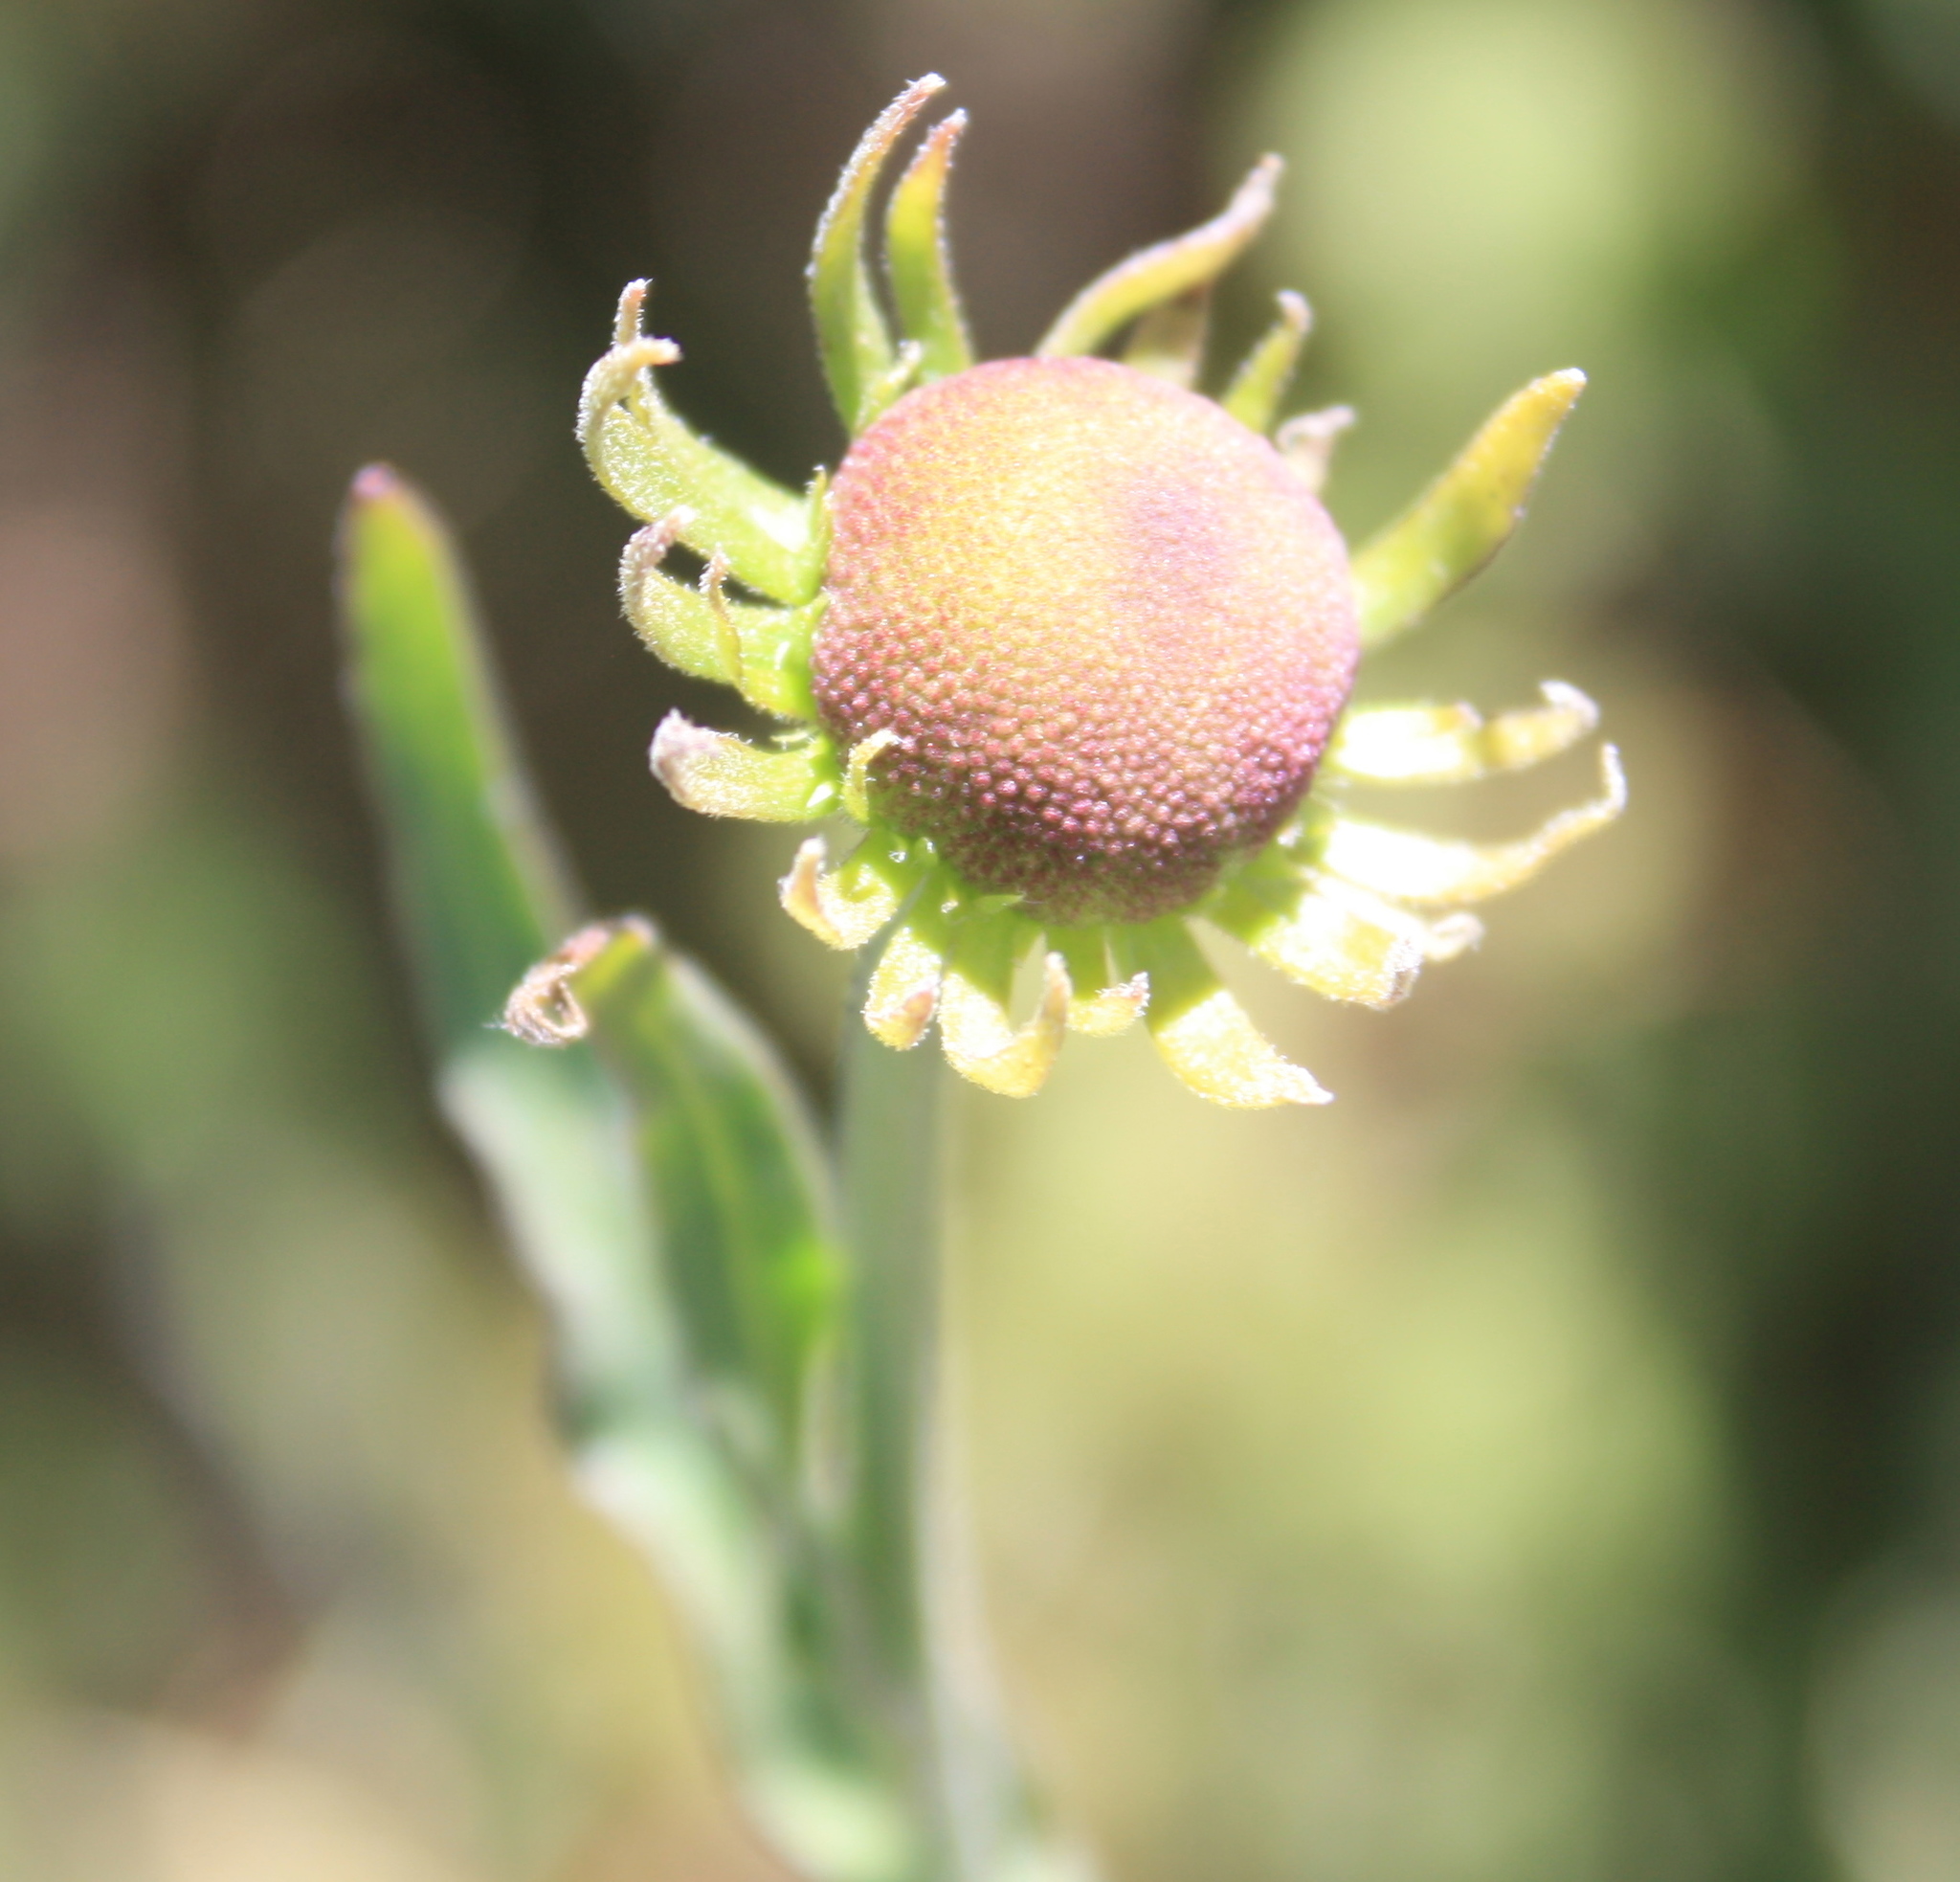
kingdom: Plantae
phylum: Tracheophyta
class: Magnoliopsida
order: Asterales
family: Asteraceae
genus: Helenium
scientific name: Helenium puberulum
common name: Sneezewort
